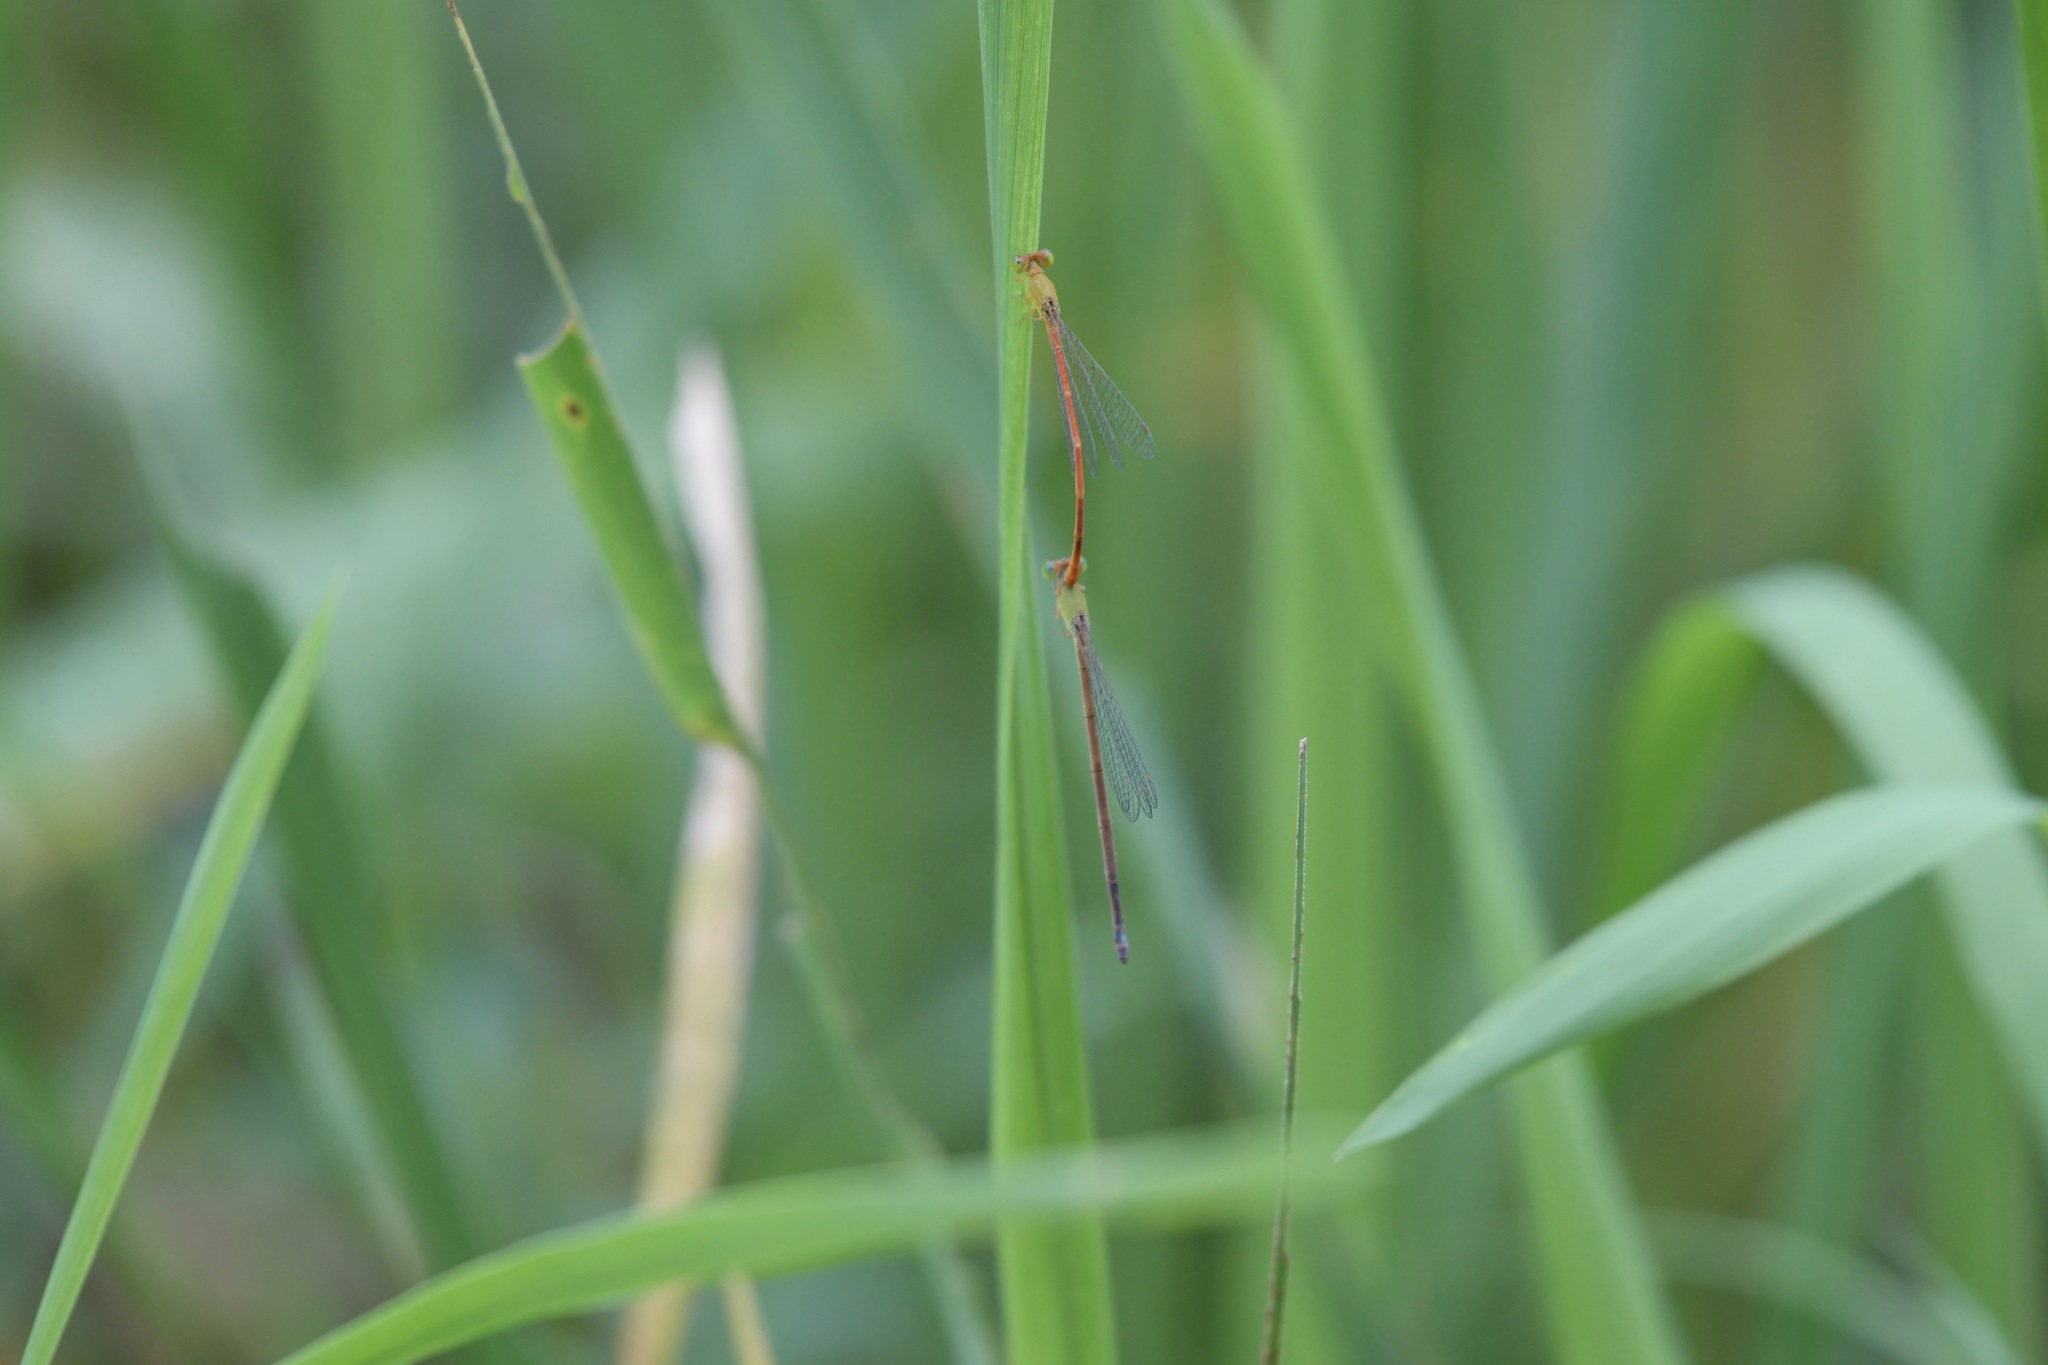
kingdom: Animalia
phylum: Arthropoda
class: Insecta
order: Odonata
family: Coenagrionidae
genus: Ceriagrion
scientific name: Ceriagrion auranticum
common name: Orange-tailed sprite
